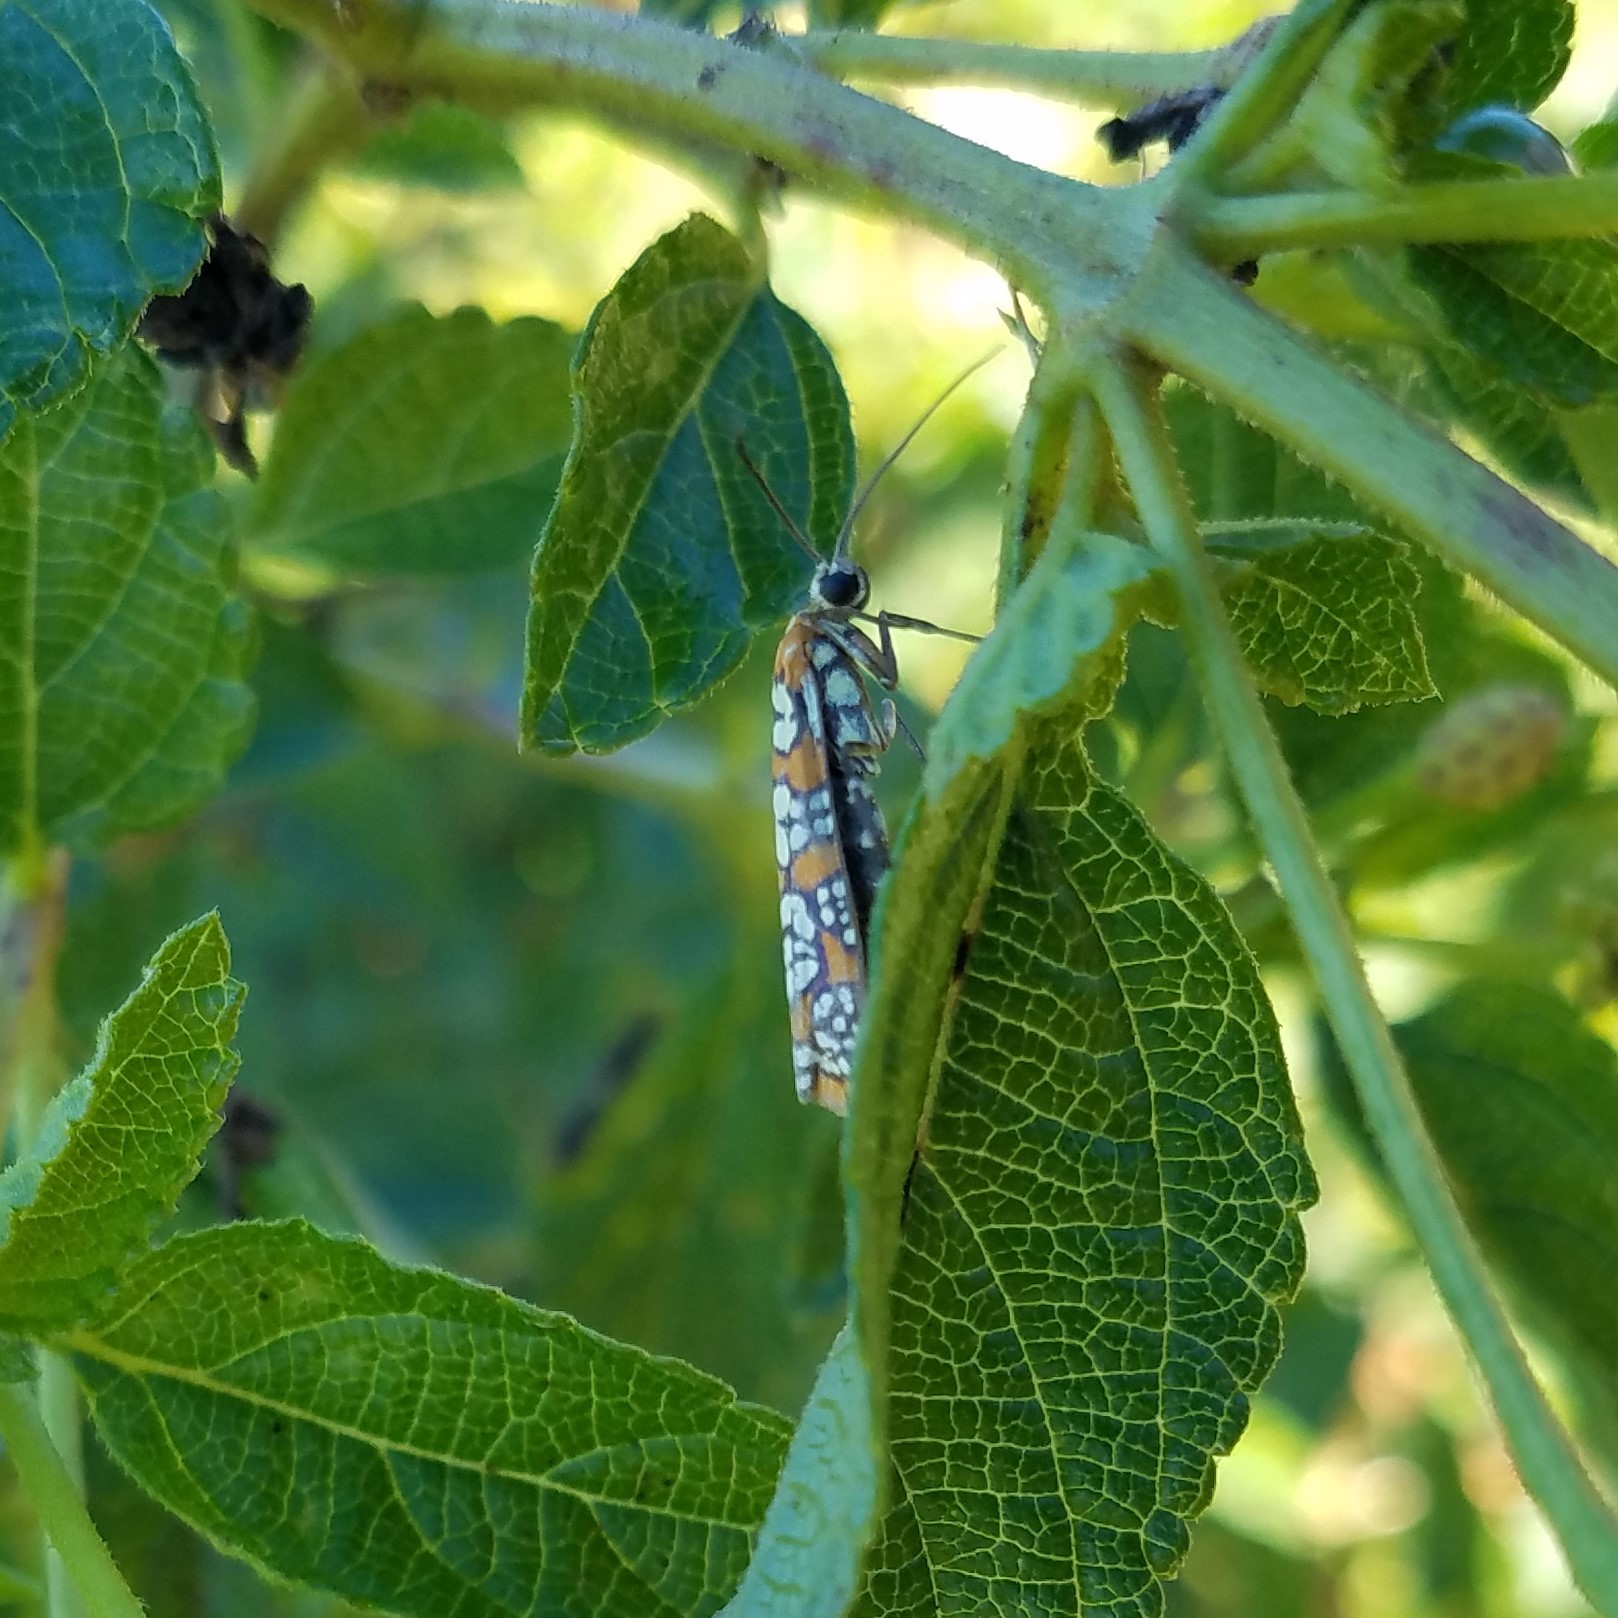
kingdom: Animalia
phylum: Arthropoda
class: Insecta
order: Lepidoptera
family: Attevidae
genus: Atteva
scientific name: Atteva punctella
